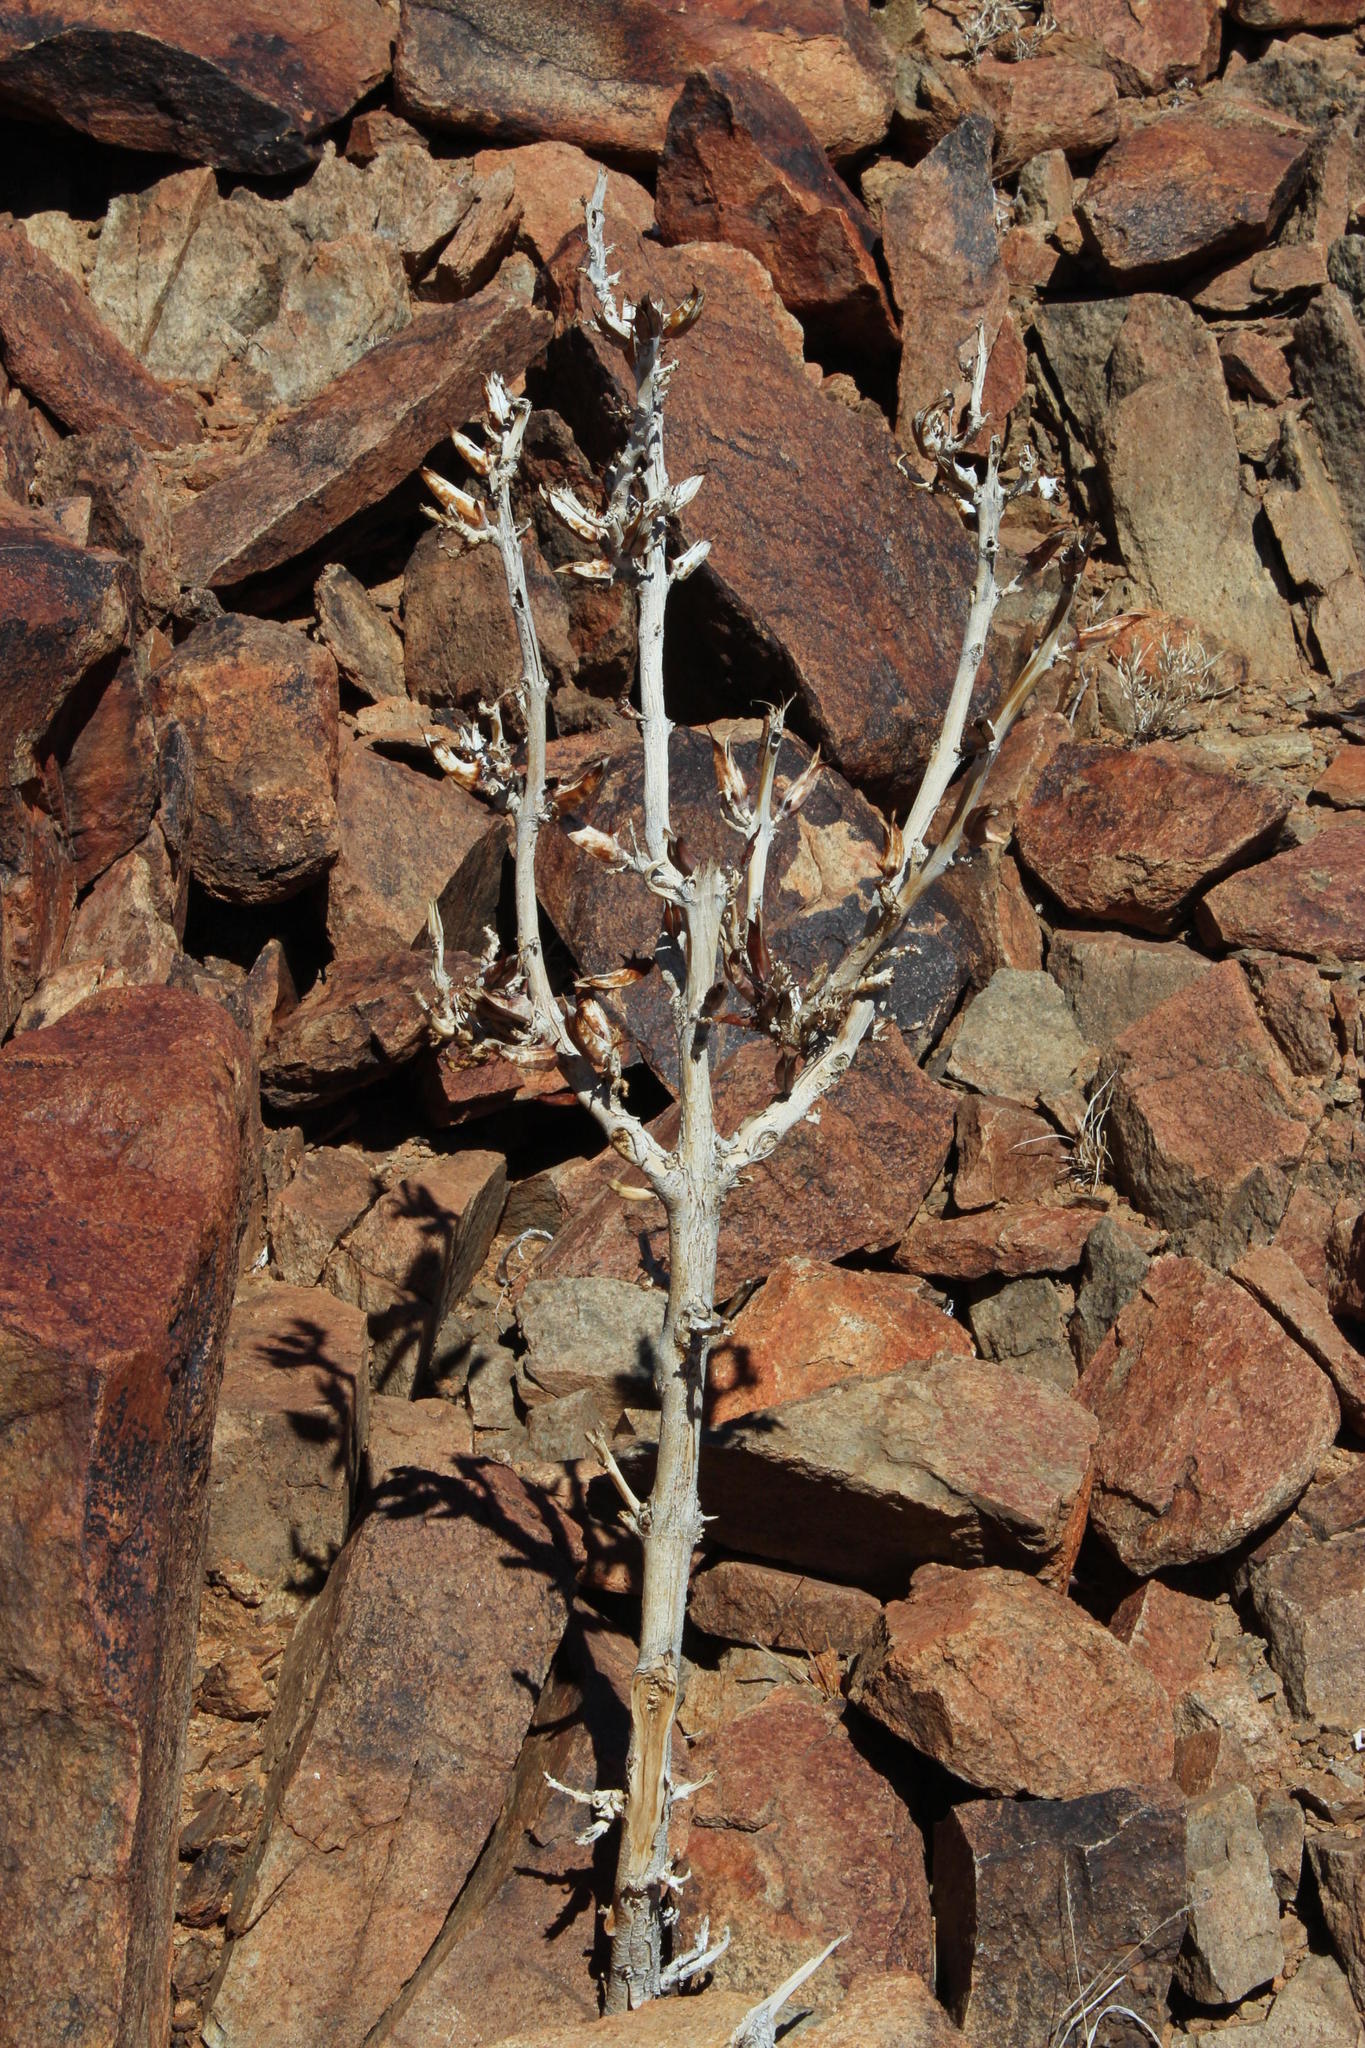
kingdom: Plantae
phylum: Tracheophyta
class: Magnoliopsida
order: Lamiales
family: Pedaliaceae
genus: Rogeria
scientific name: Rogeria longiflora
